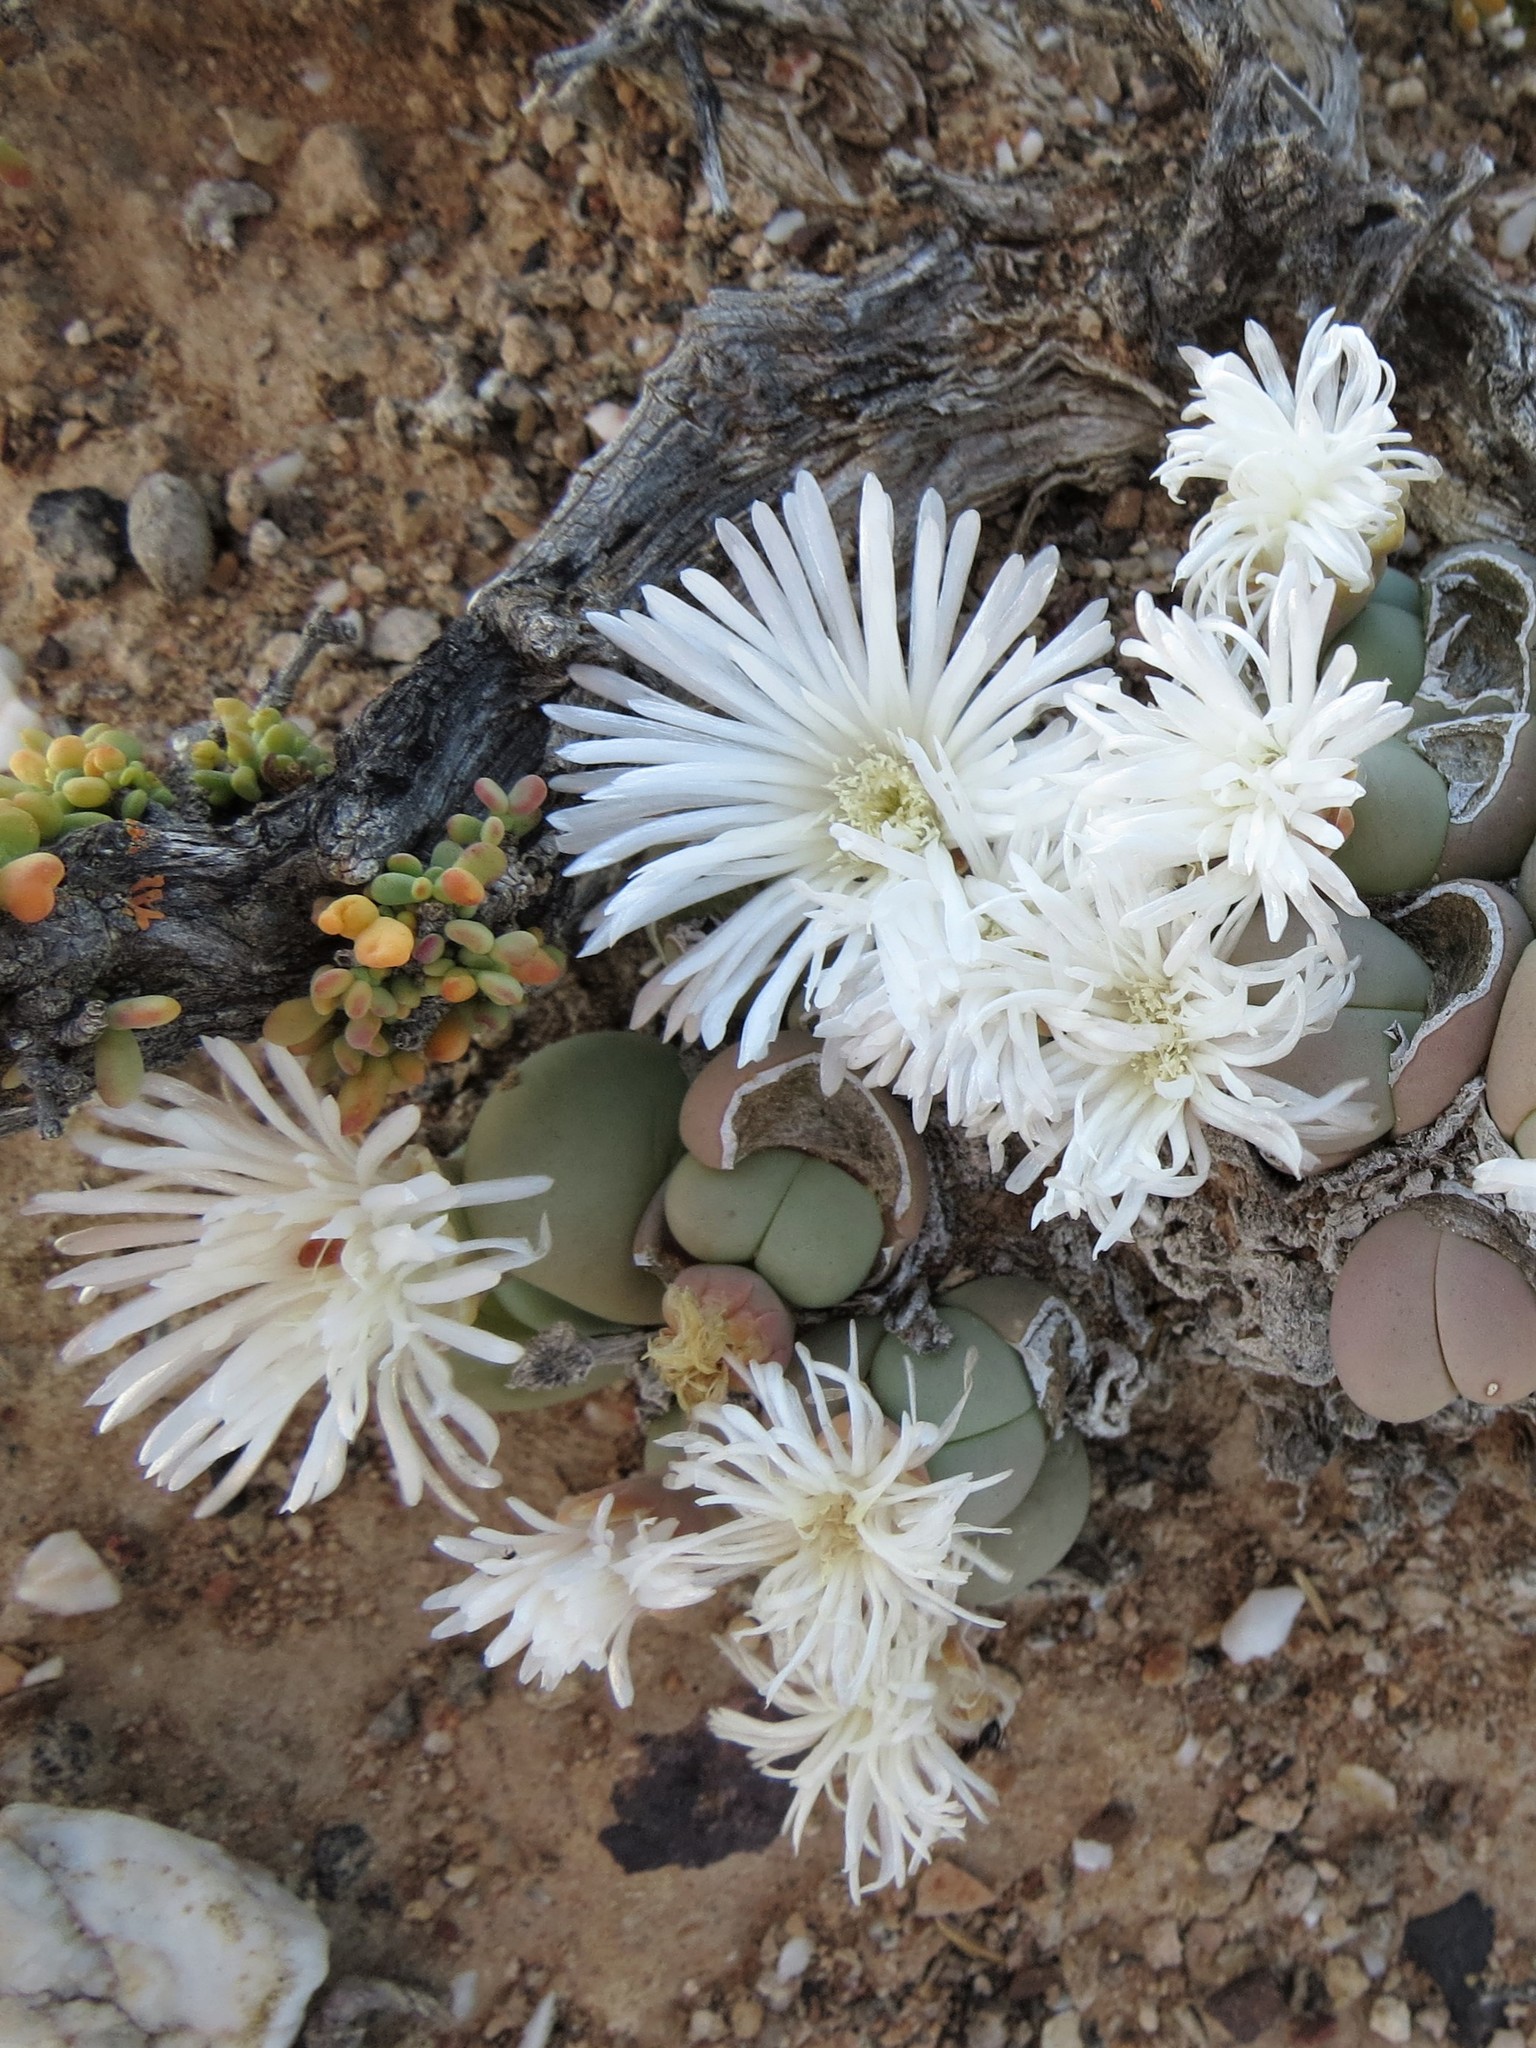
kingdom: Plantae
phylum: Tracheophyta
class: Magnoliopsida
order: Caryophyllales
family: Aizoaceae
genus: Gibbaeum
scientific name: Gibbaeum heathii
